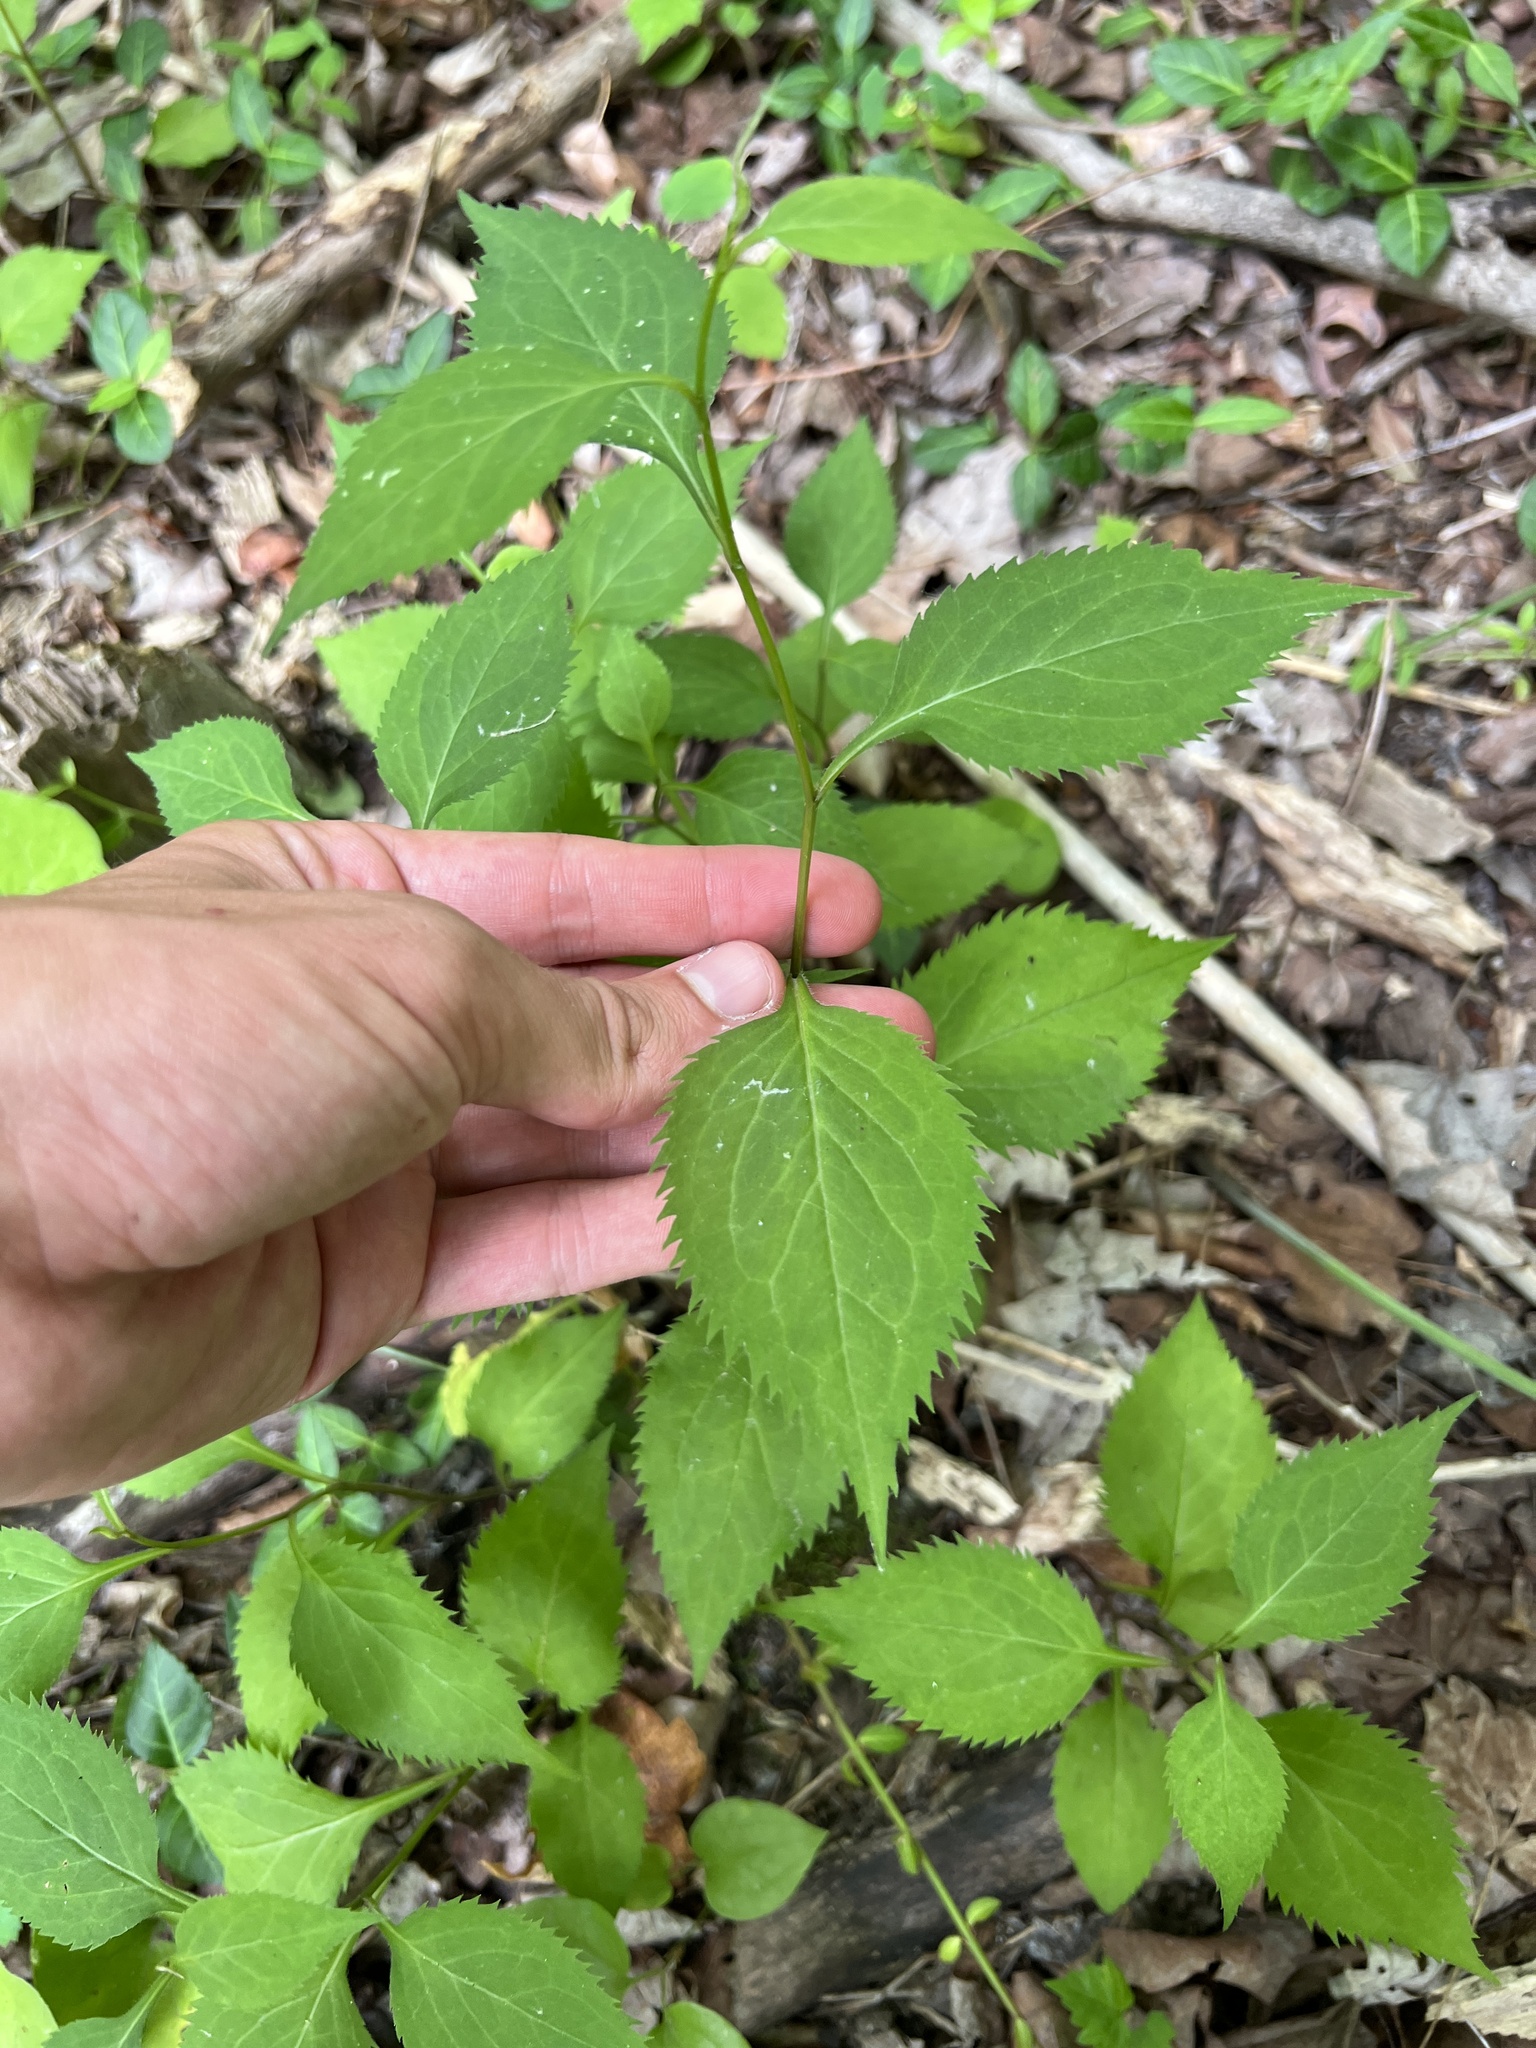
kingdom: Plantae
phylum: Tracheophyta
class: Magnoliopsida
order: Asterales
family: Asteraceae
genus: Solidago
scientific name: Solidago flexicaulis
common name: Zig-zag goldenrod
